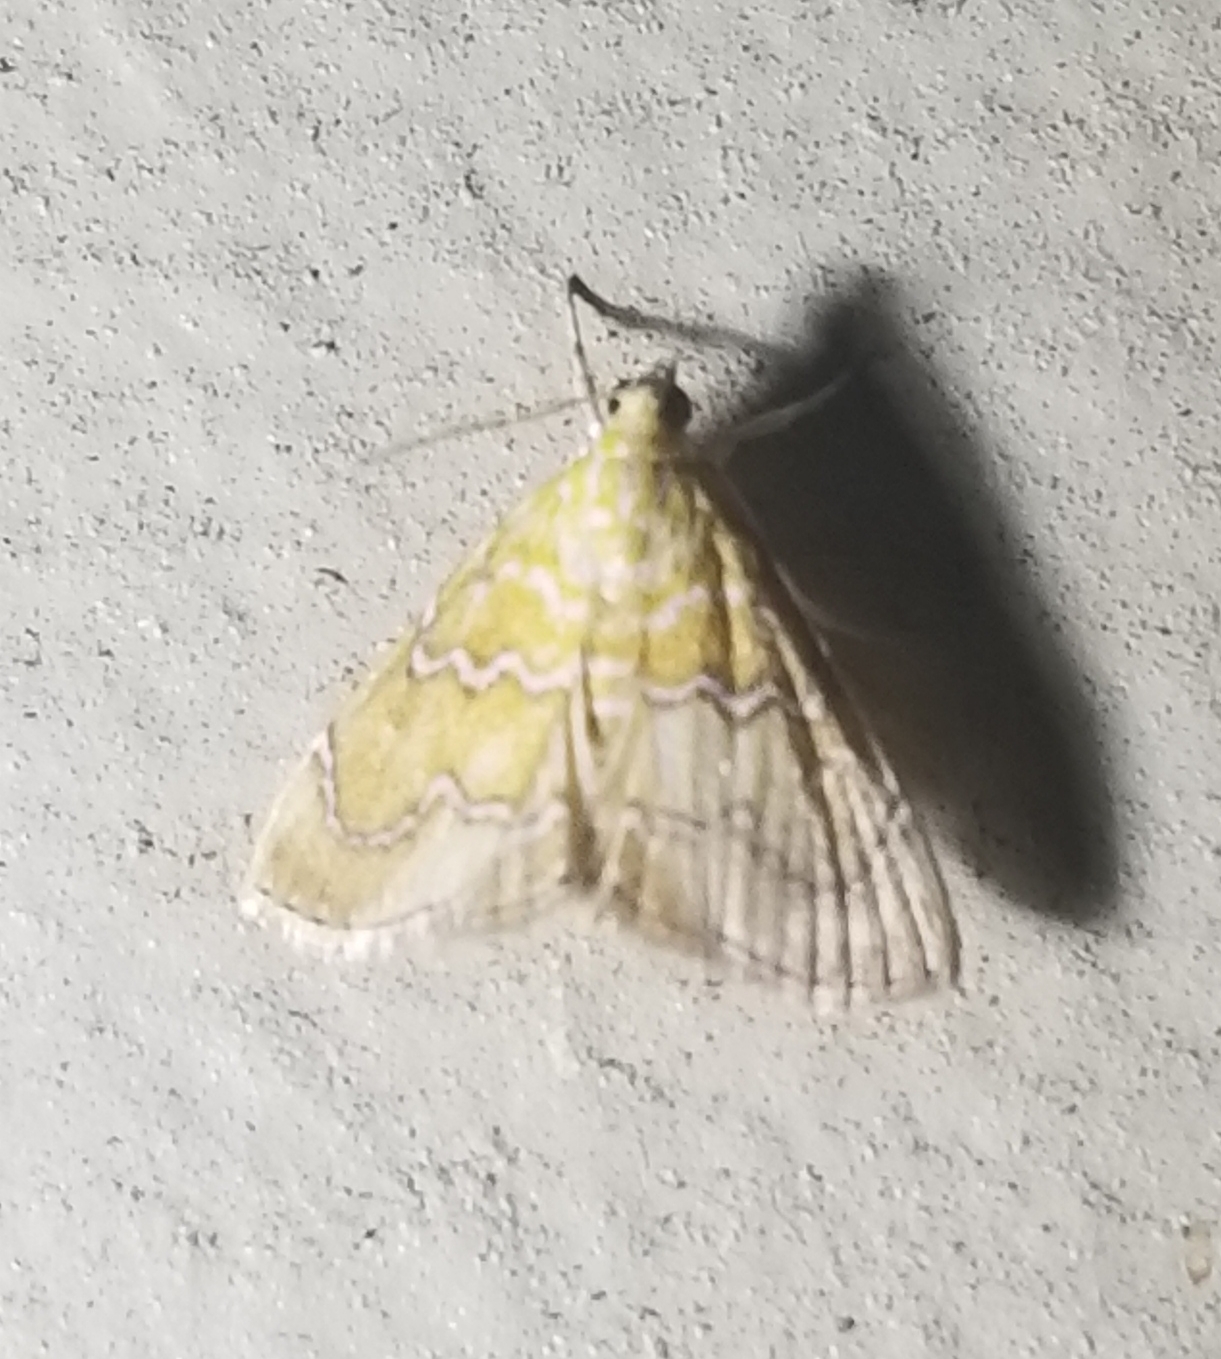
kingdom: Animalia
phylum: Arthropoda
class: Insecta
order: Lepidoptera
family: Crambidae
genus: Glaphyria
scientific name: Glaphyria sesquistrialis
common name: White-roped glaphyria
